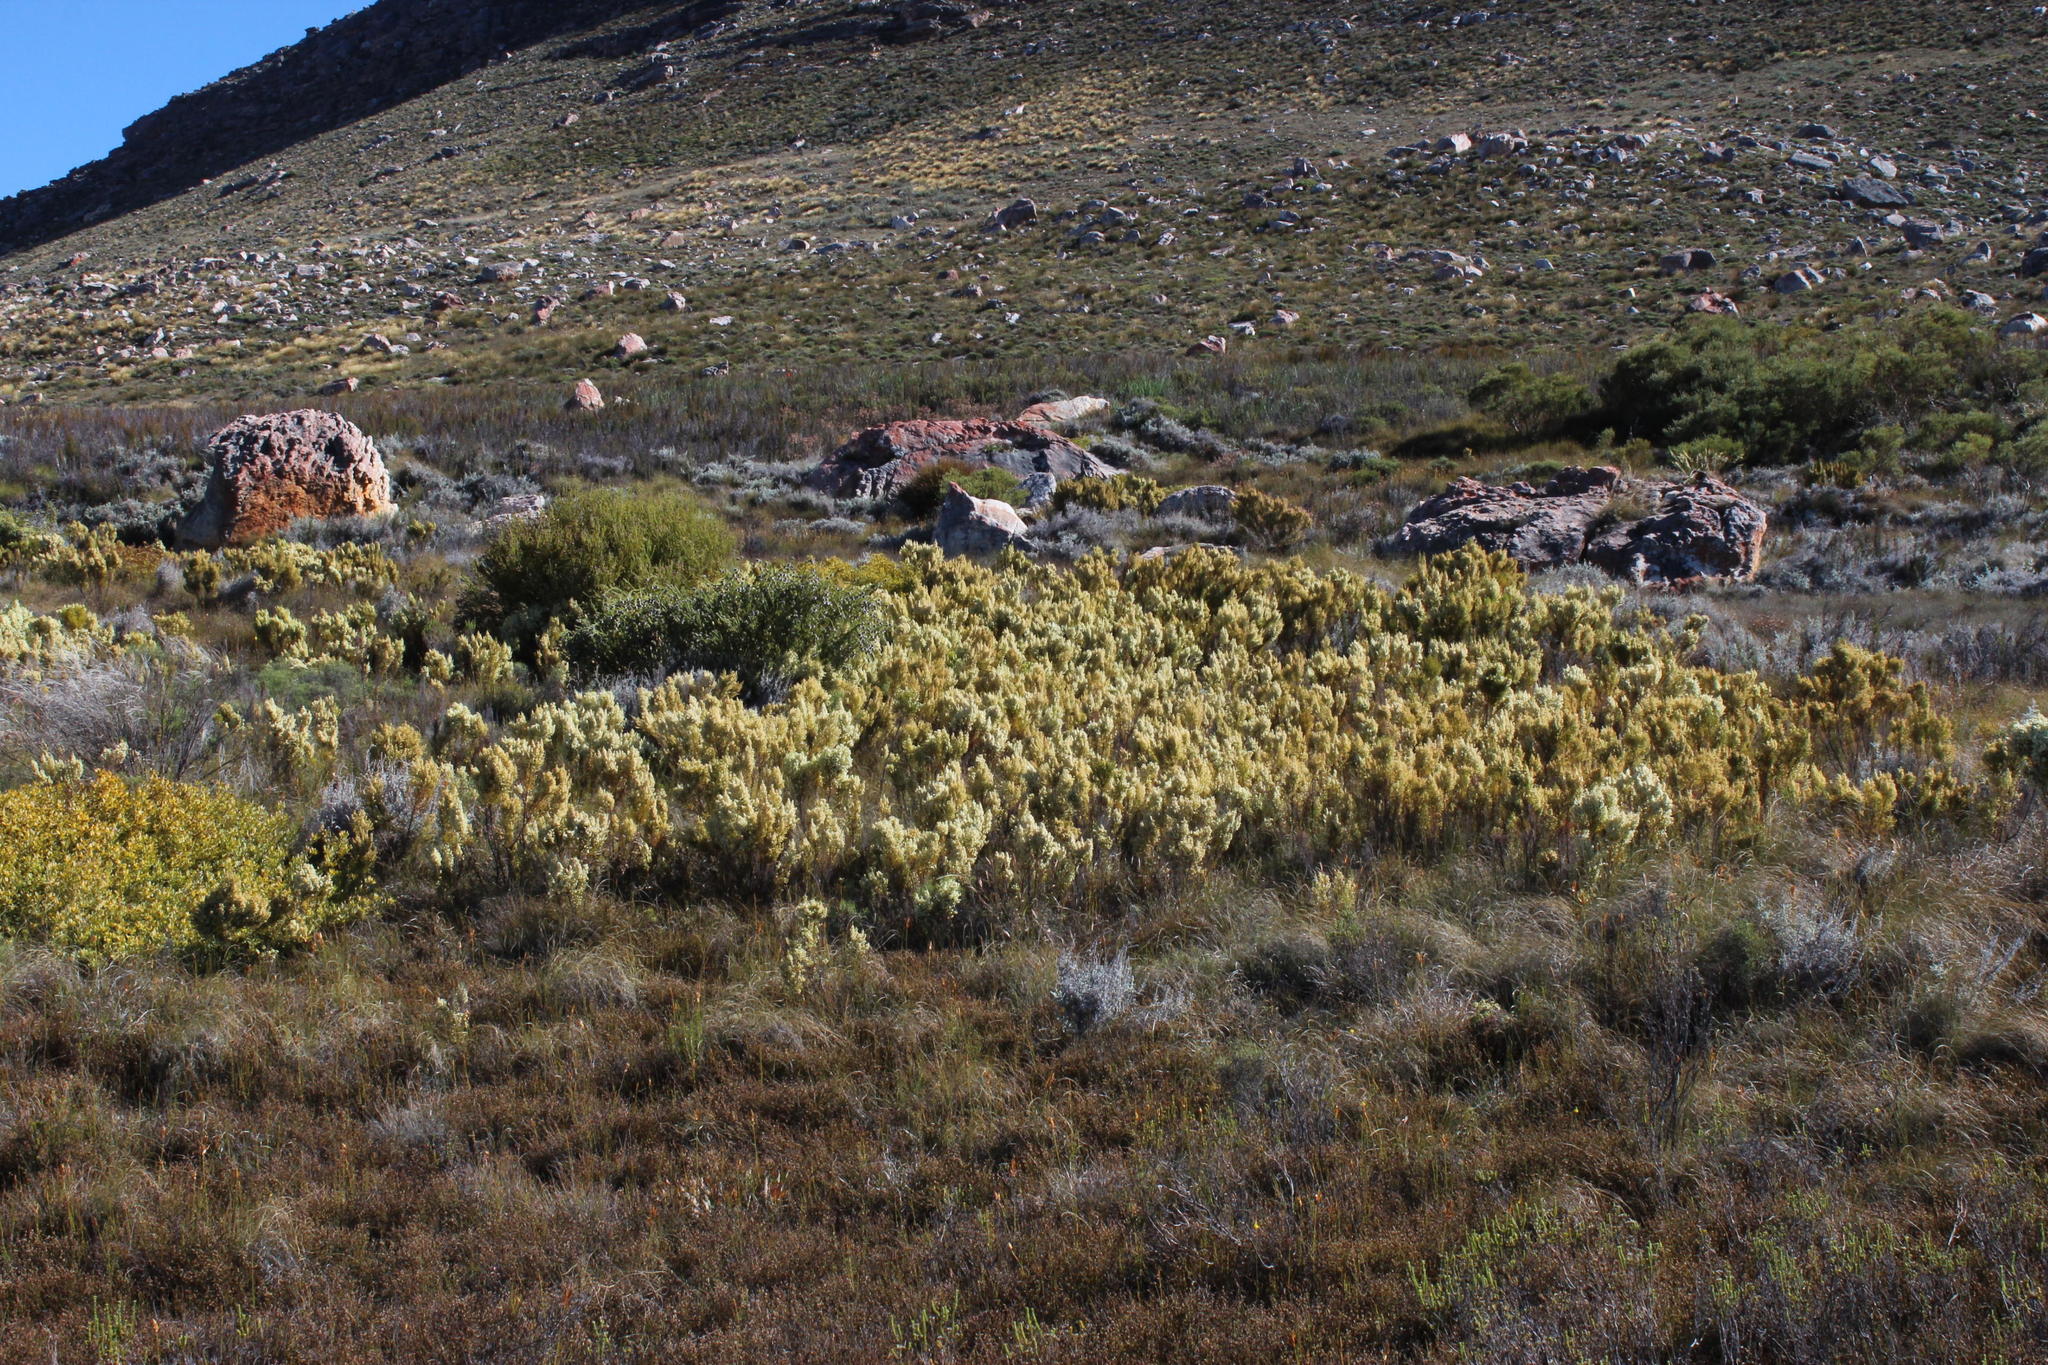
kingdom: Plantae
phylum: Tracheophyta
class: Magnoliopsida
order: Ericales
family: Ericaceae
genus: Erica
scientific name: Erica leucanthera
